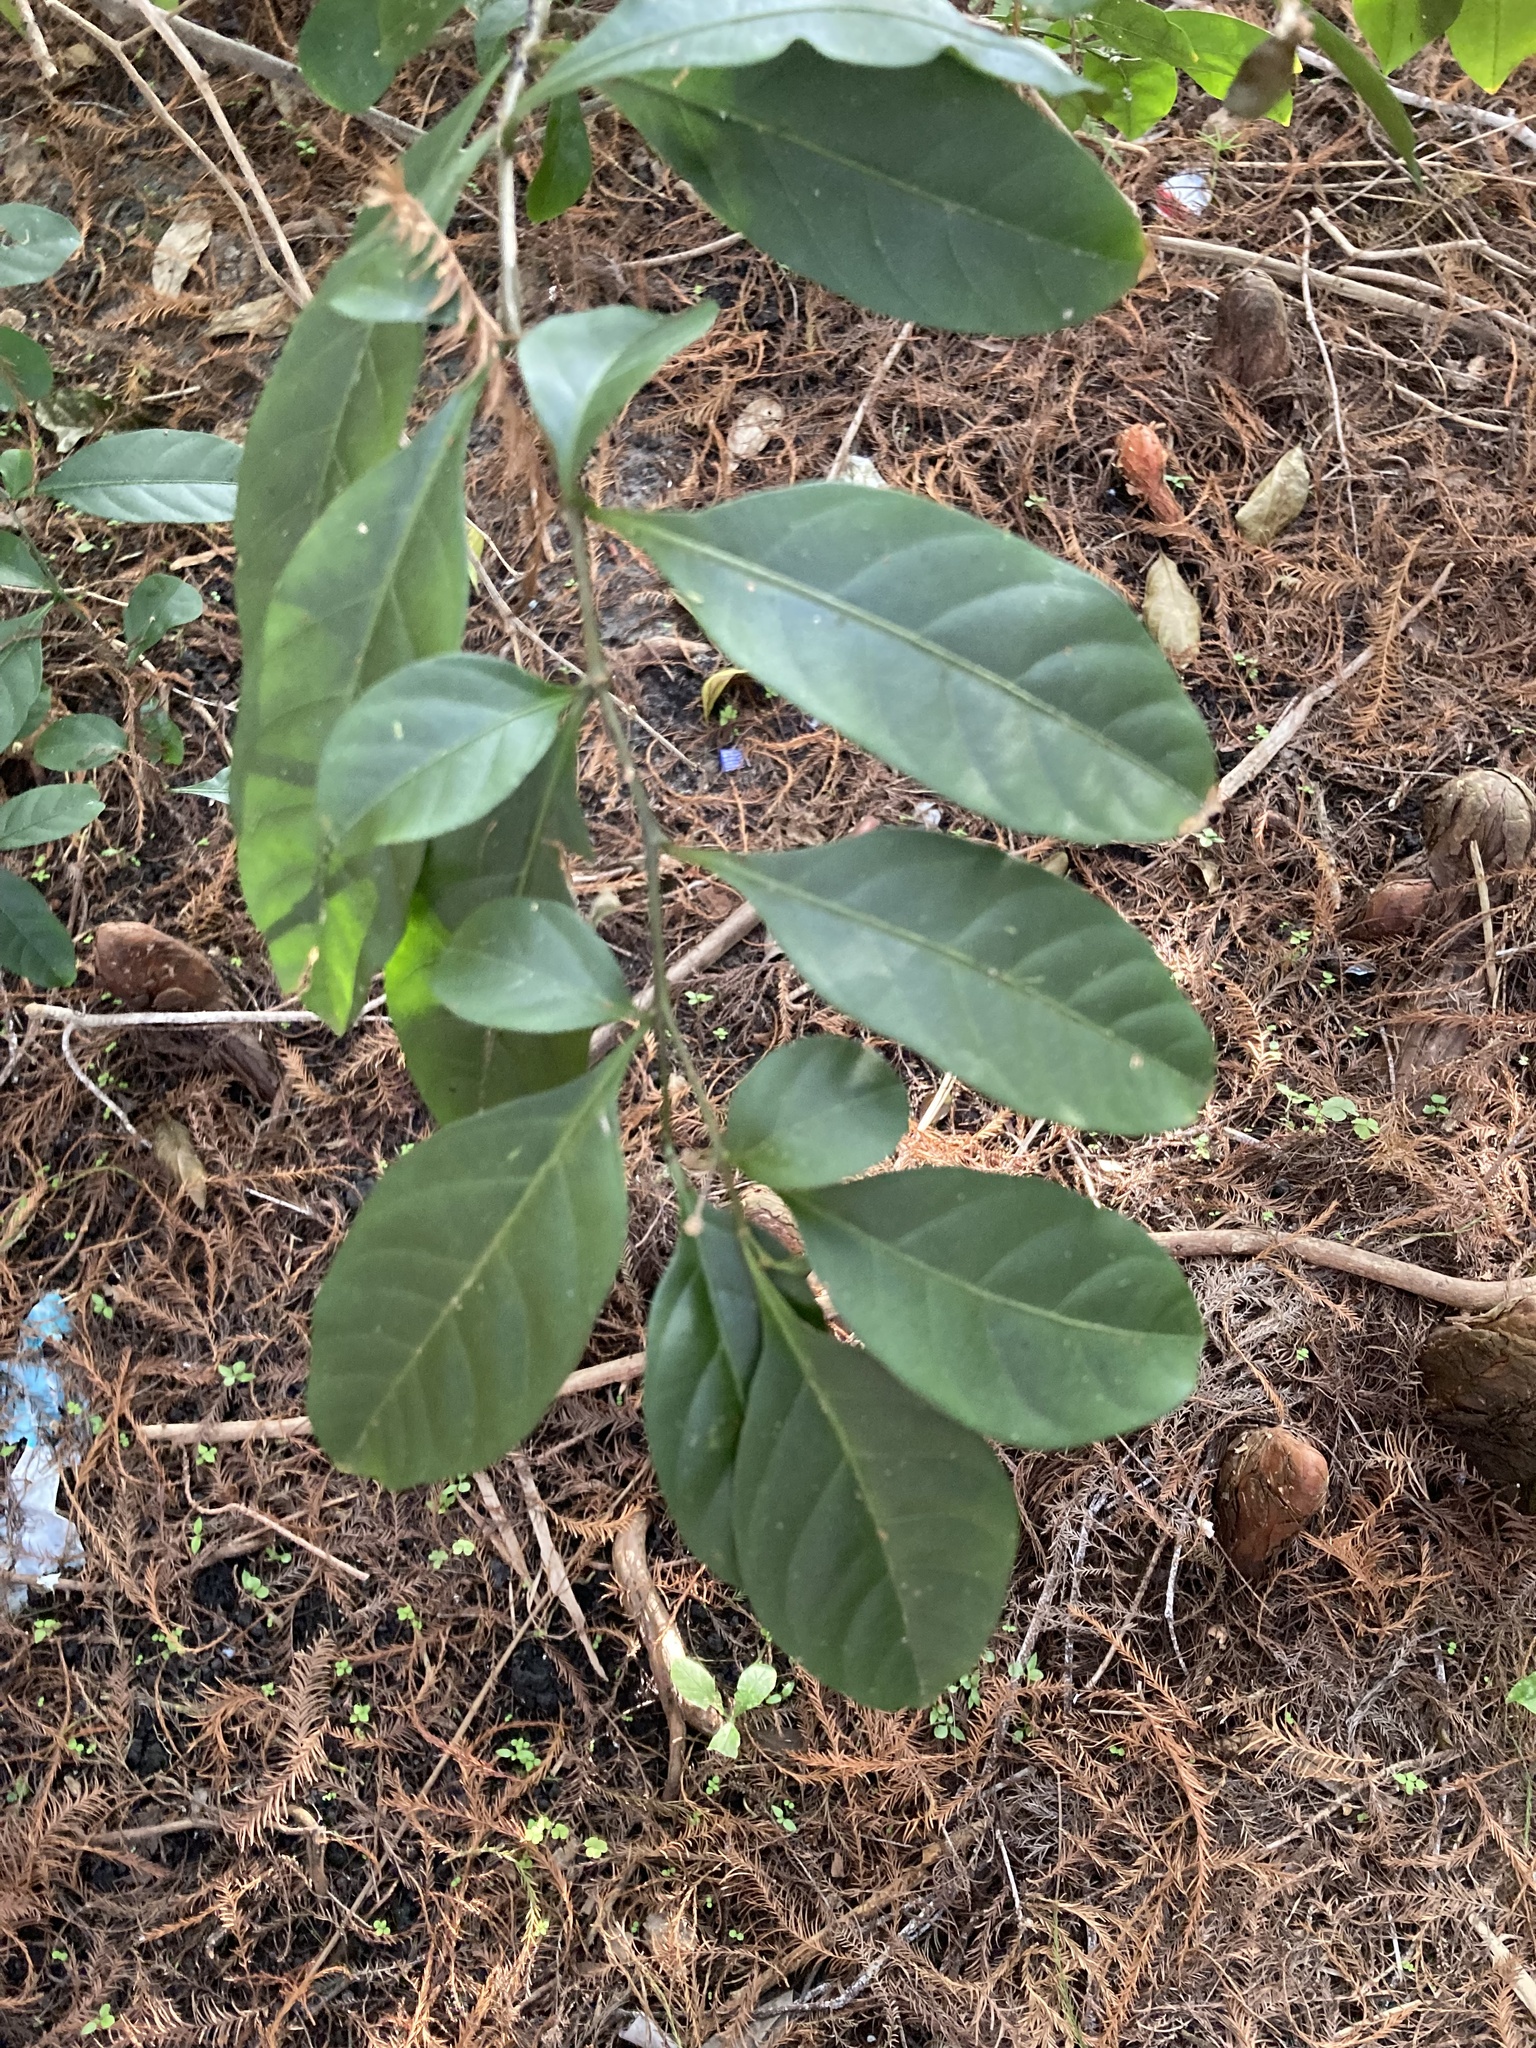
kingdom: Plantae
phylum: Tracheophyta
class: Magnoliopsida
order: Solanales
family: Solanaceae
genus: Solanum
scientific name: Solanum diphyllum
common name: Twoleaf nightshade
